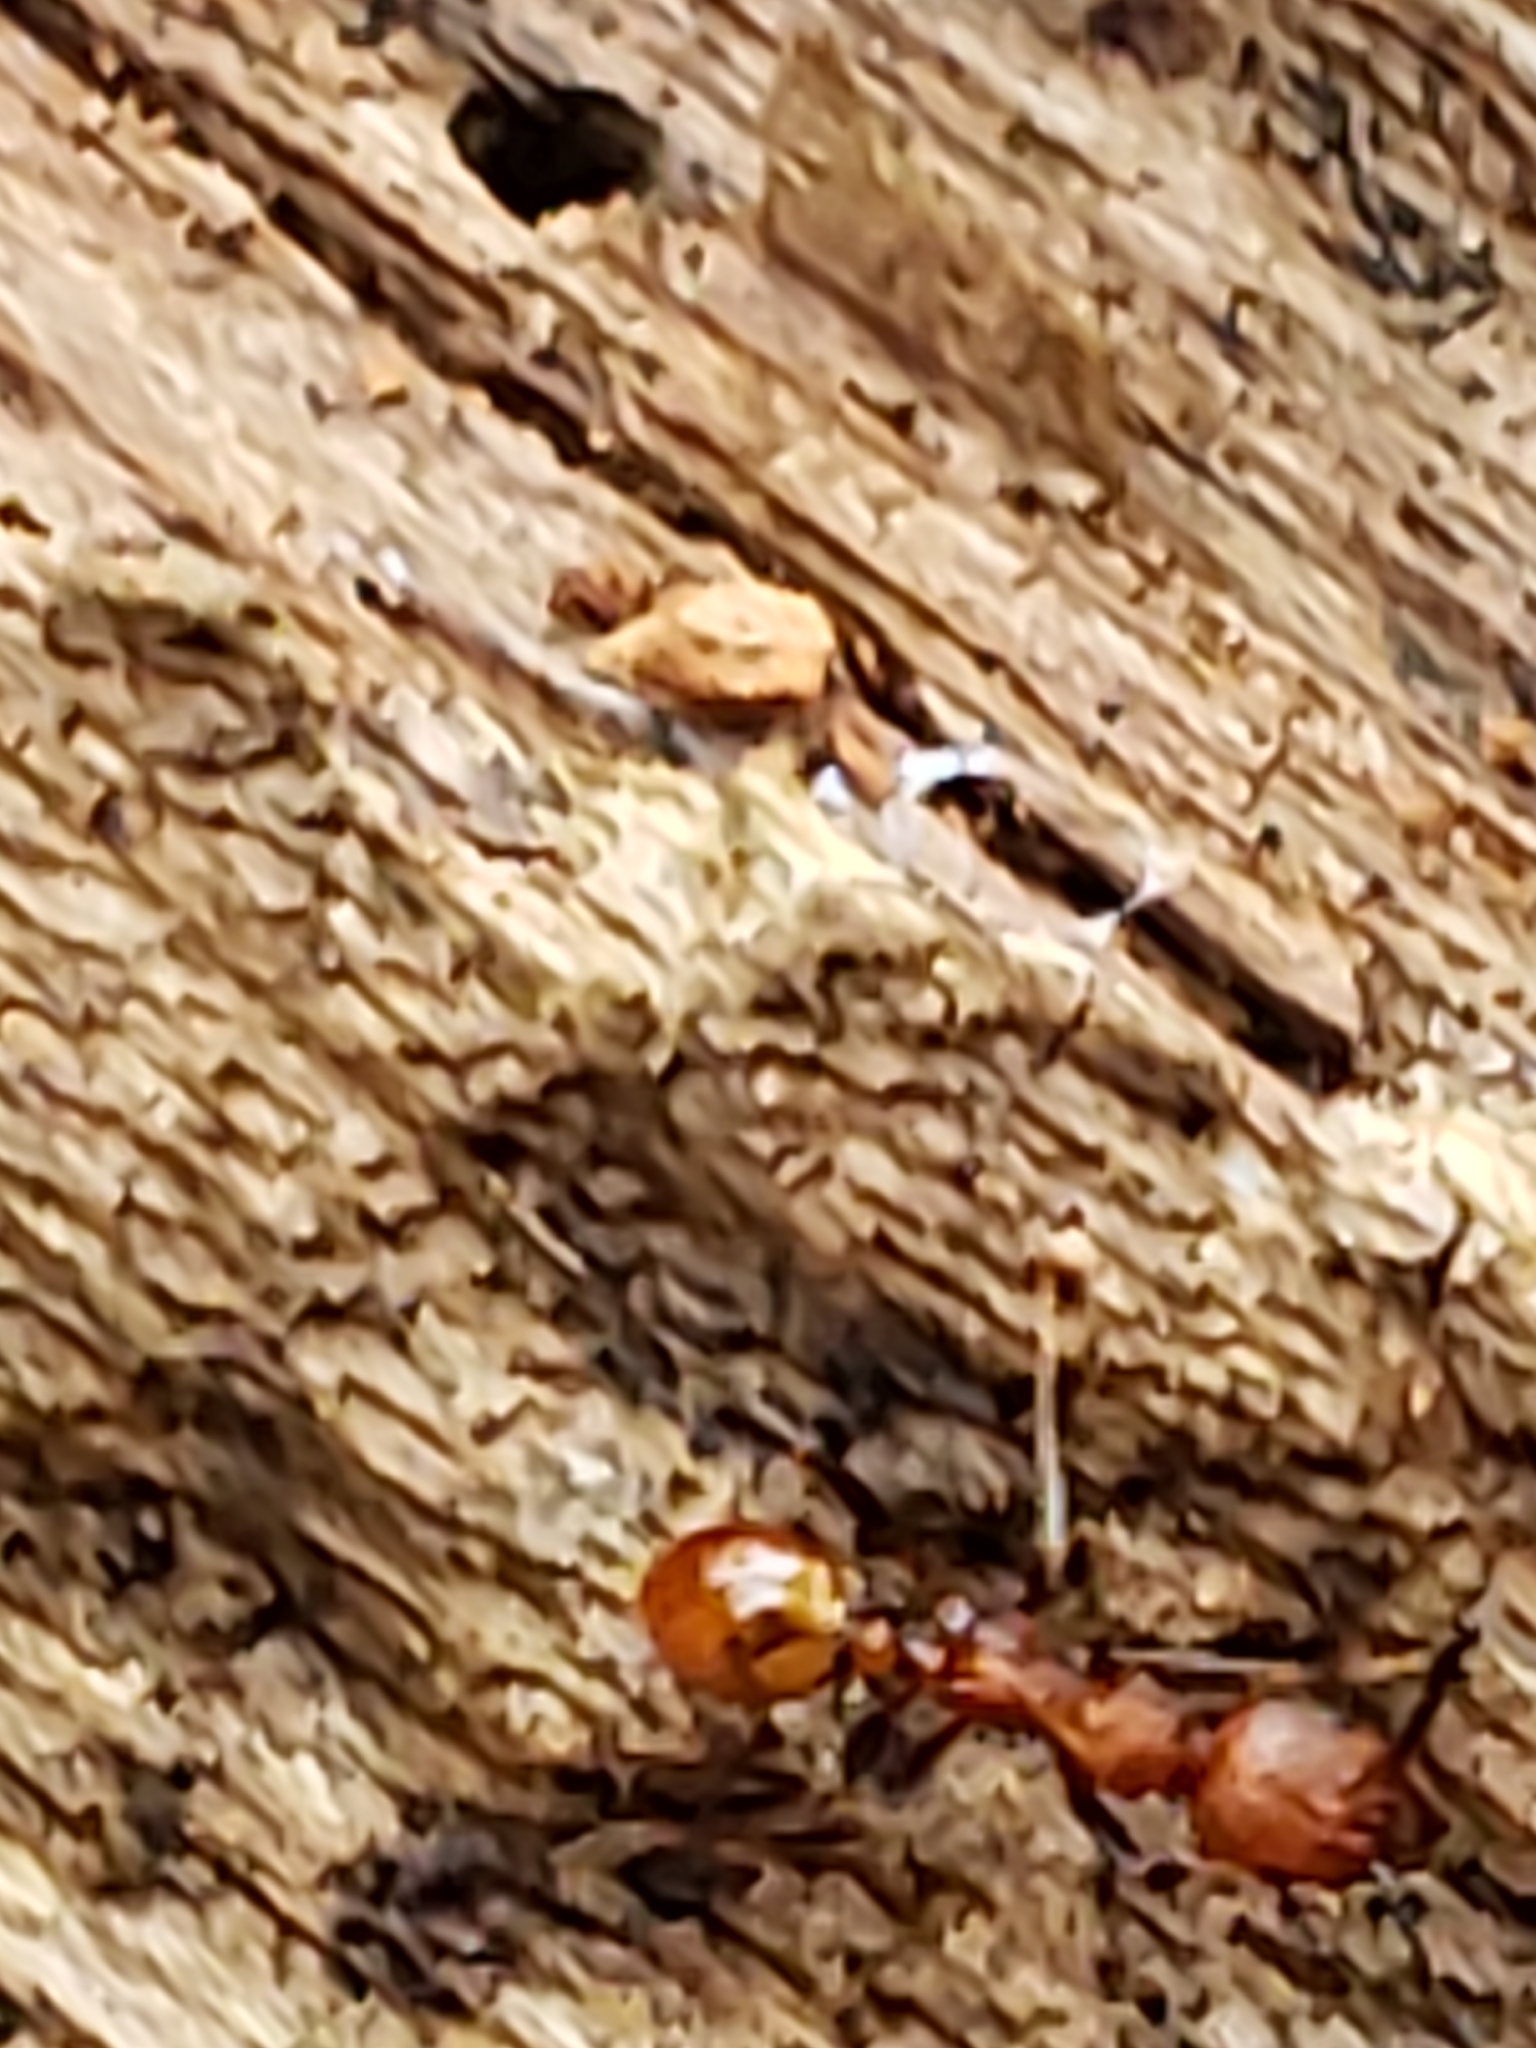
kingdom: Animalia
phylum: Arthropoda
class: Insecta
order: Hymenoptera
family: Formicidae
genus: Aphaenogaster
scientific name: Aphaenogaster tennesseensis
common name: Tennessee thread-waisted ant
